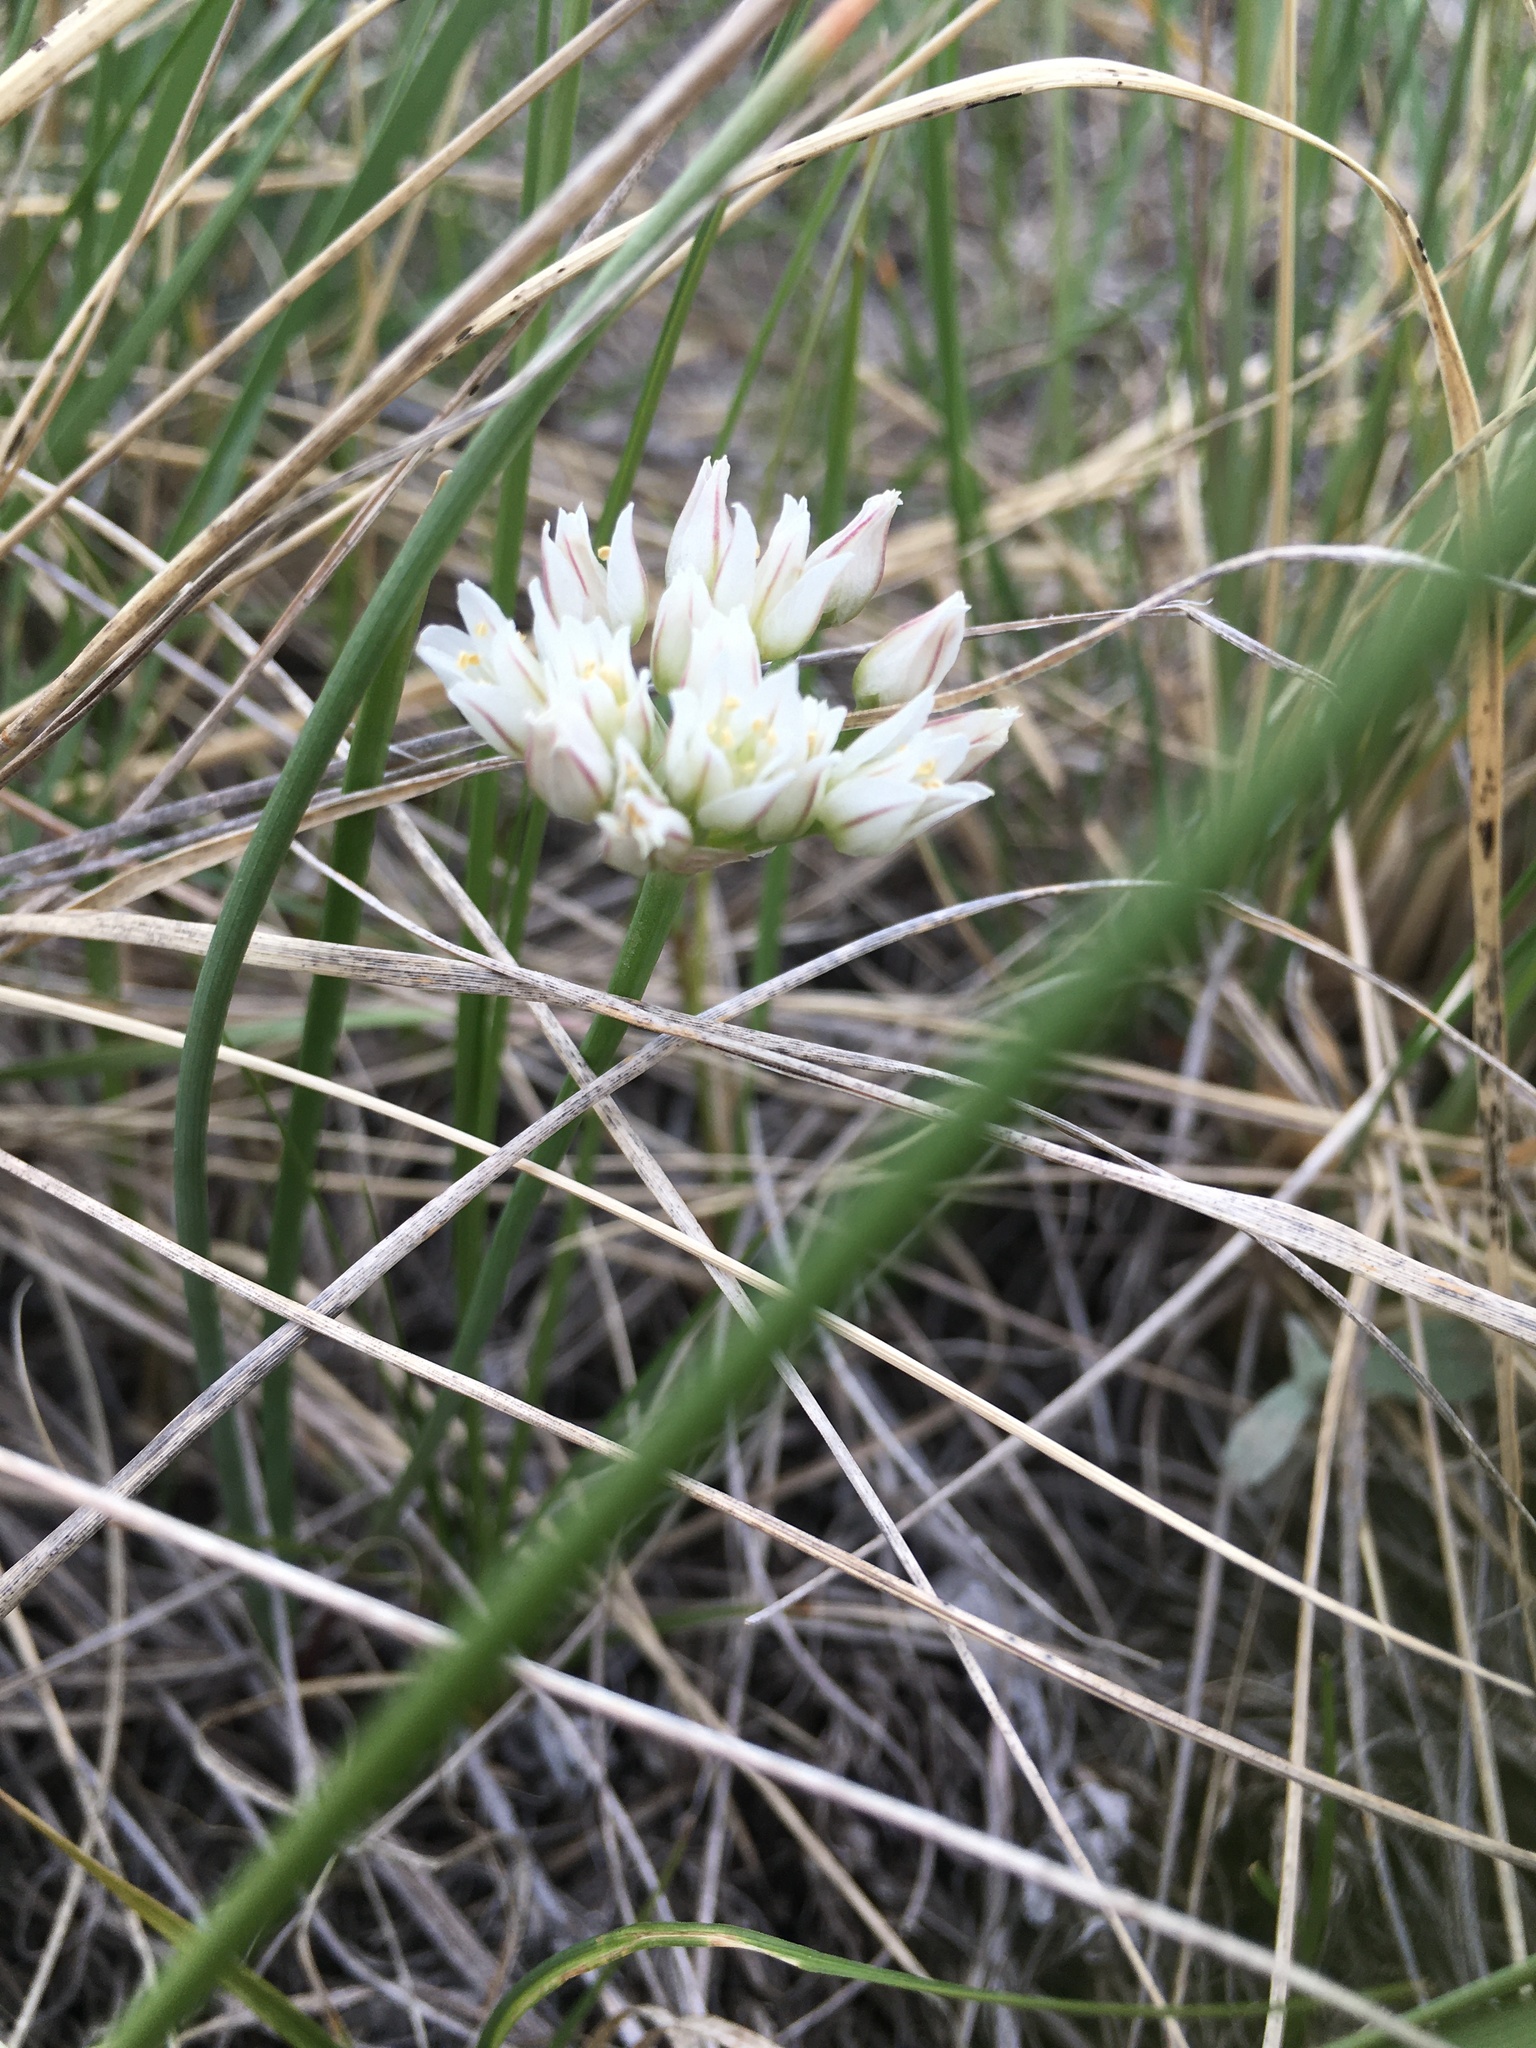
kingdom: Plantae
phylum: Tracheophyta
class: Liliopsida
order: Asparagales
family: Amaryllidaceae
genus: Allium
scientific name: Allium textile
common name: Prairie onion
